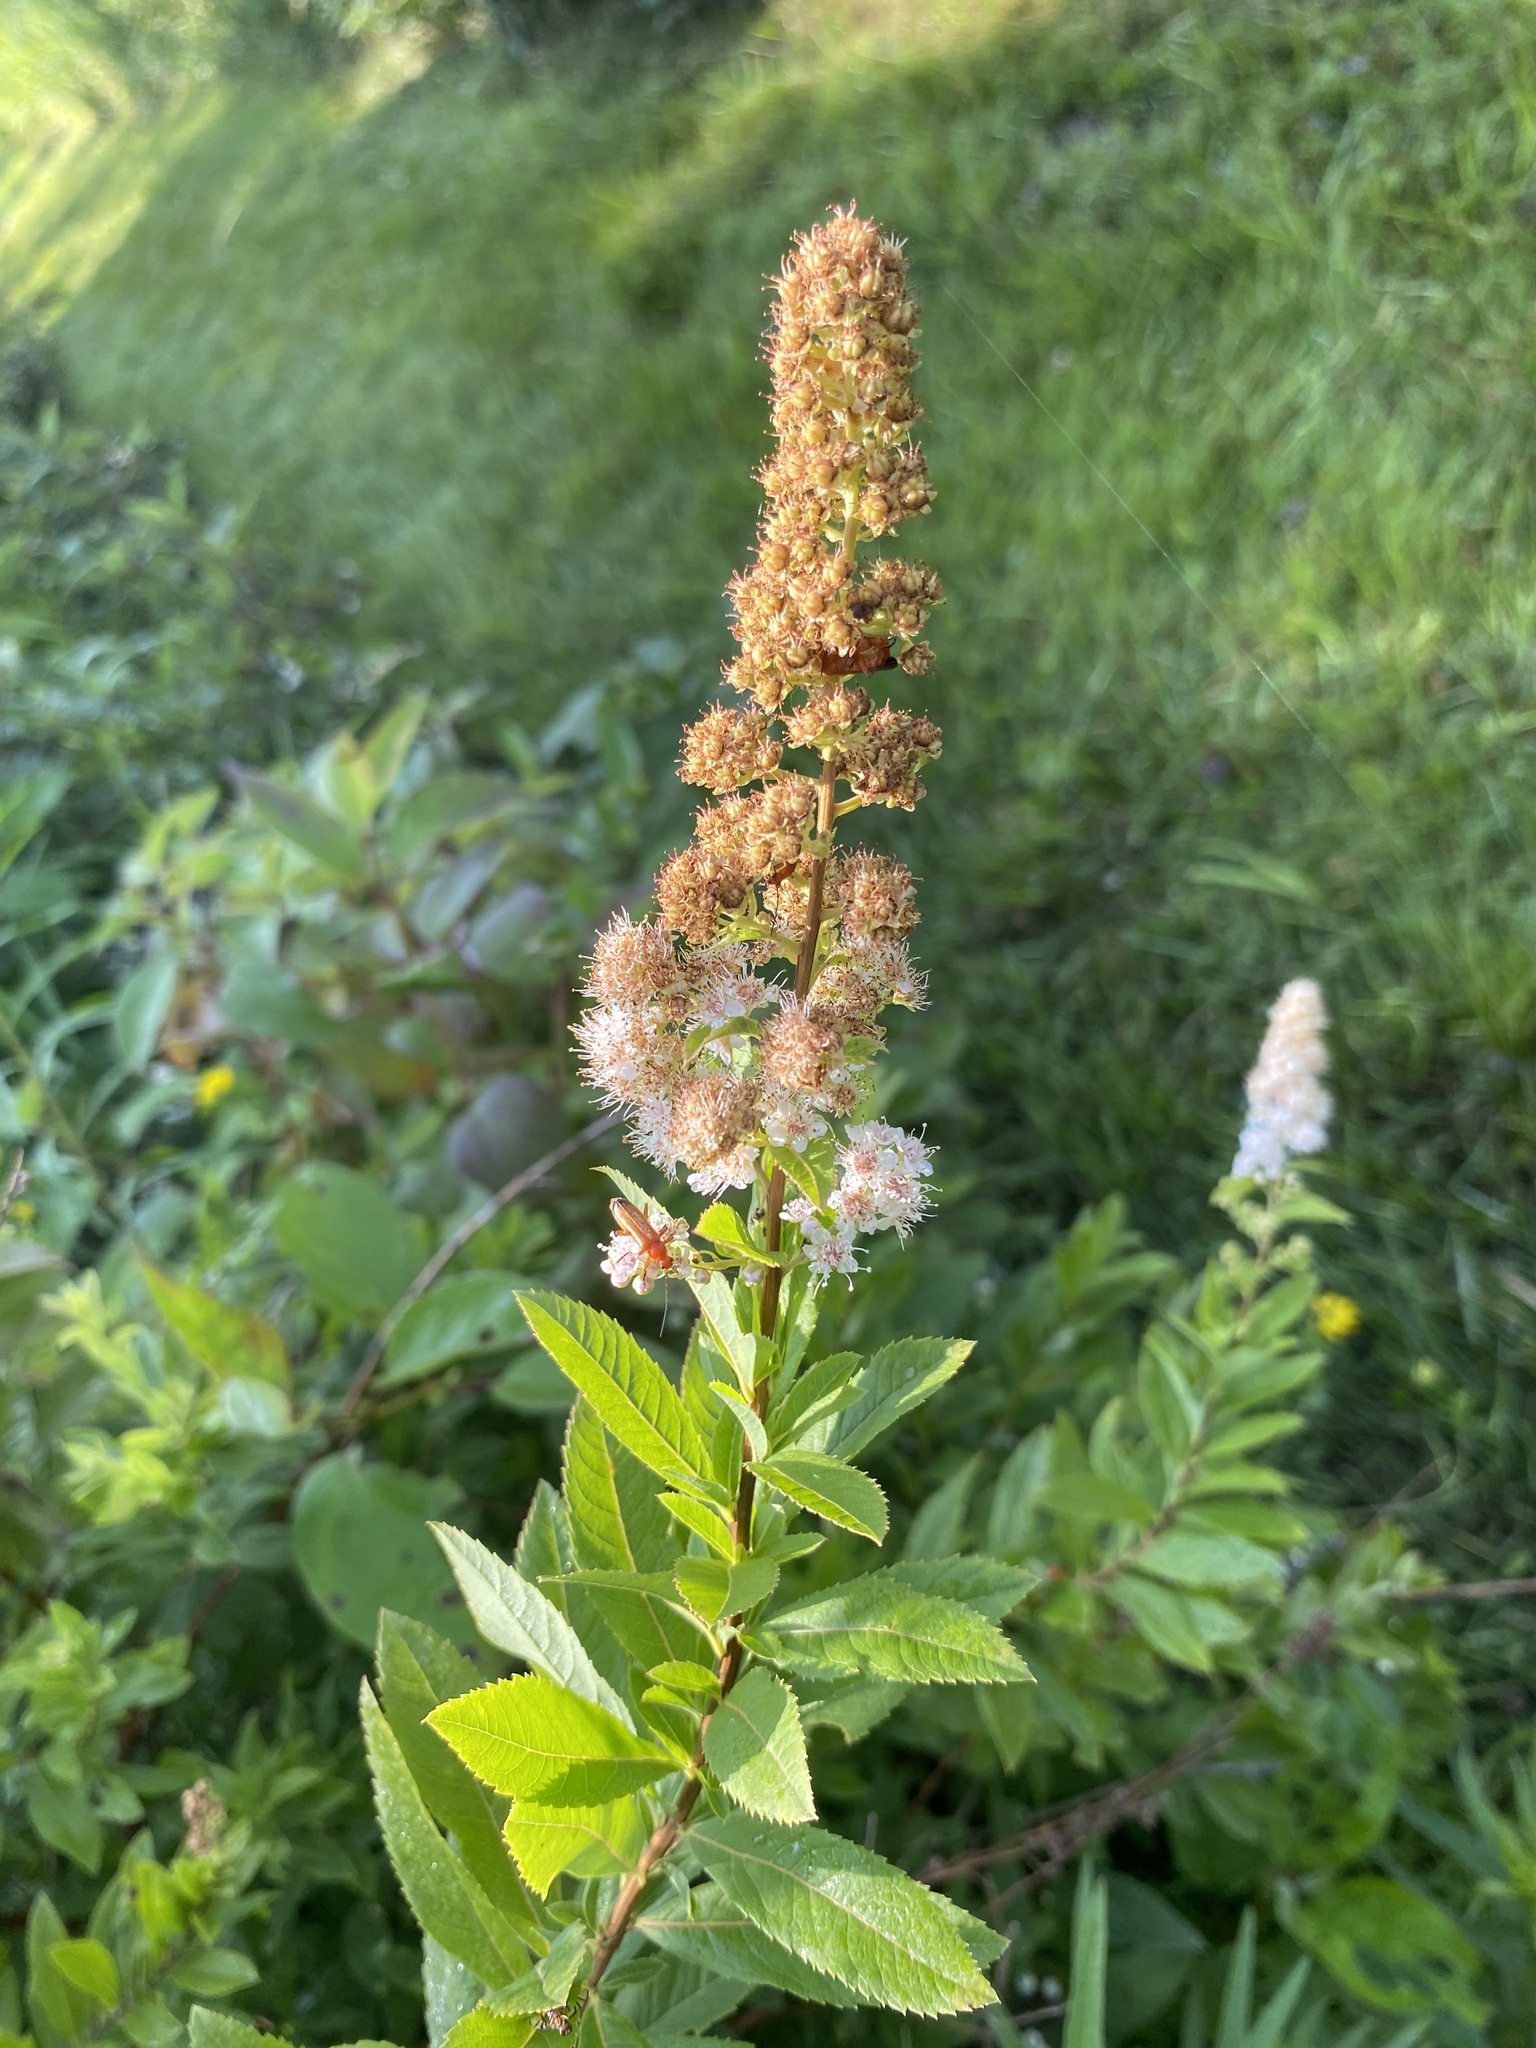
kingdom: Plantae
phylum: Tracheophyta
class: Magnoliopsida
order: Rosales
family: Rosaceae
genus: Spiraea
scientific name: Spiraea alba
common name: Pale bridewort
